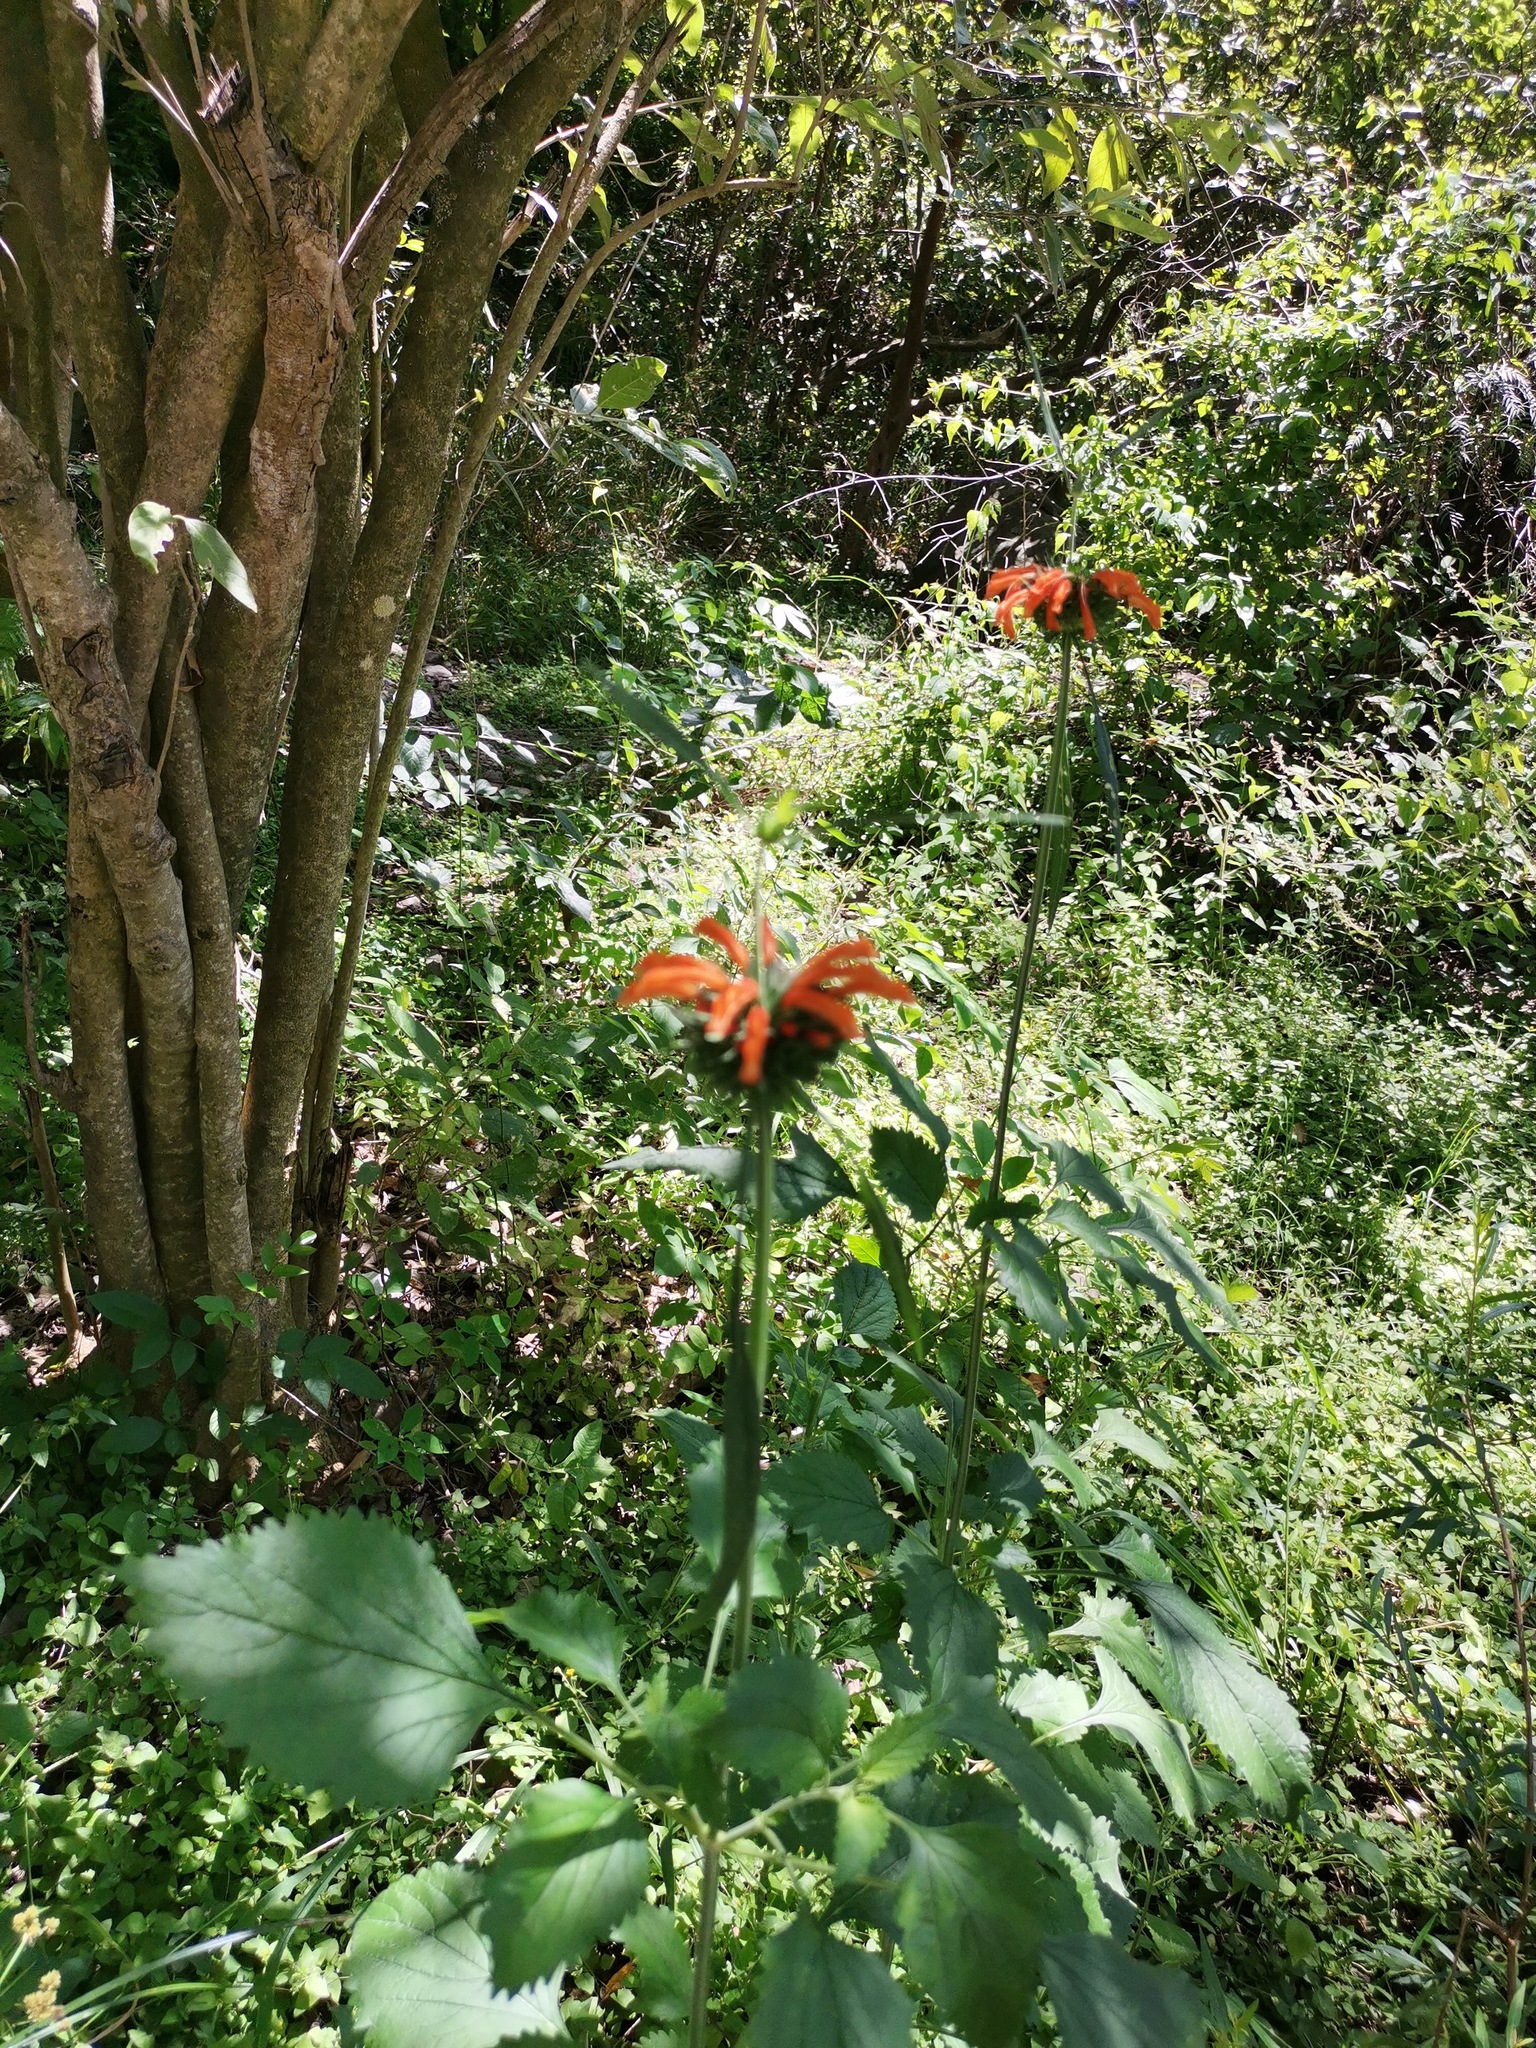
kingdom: Plantae
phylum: Tracheophyta
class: Magnoliopsida
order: Lamiales
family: Lamiaceae
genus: Leonotis
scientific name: Leonotis nepetifolia
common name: Christmas candlestick
